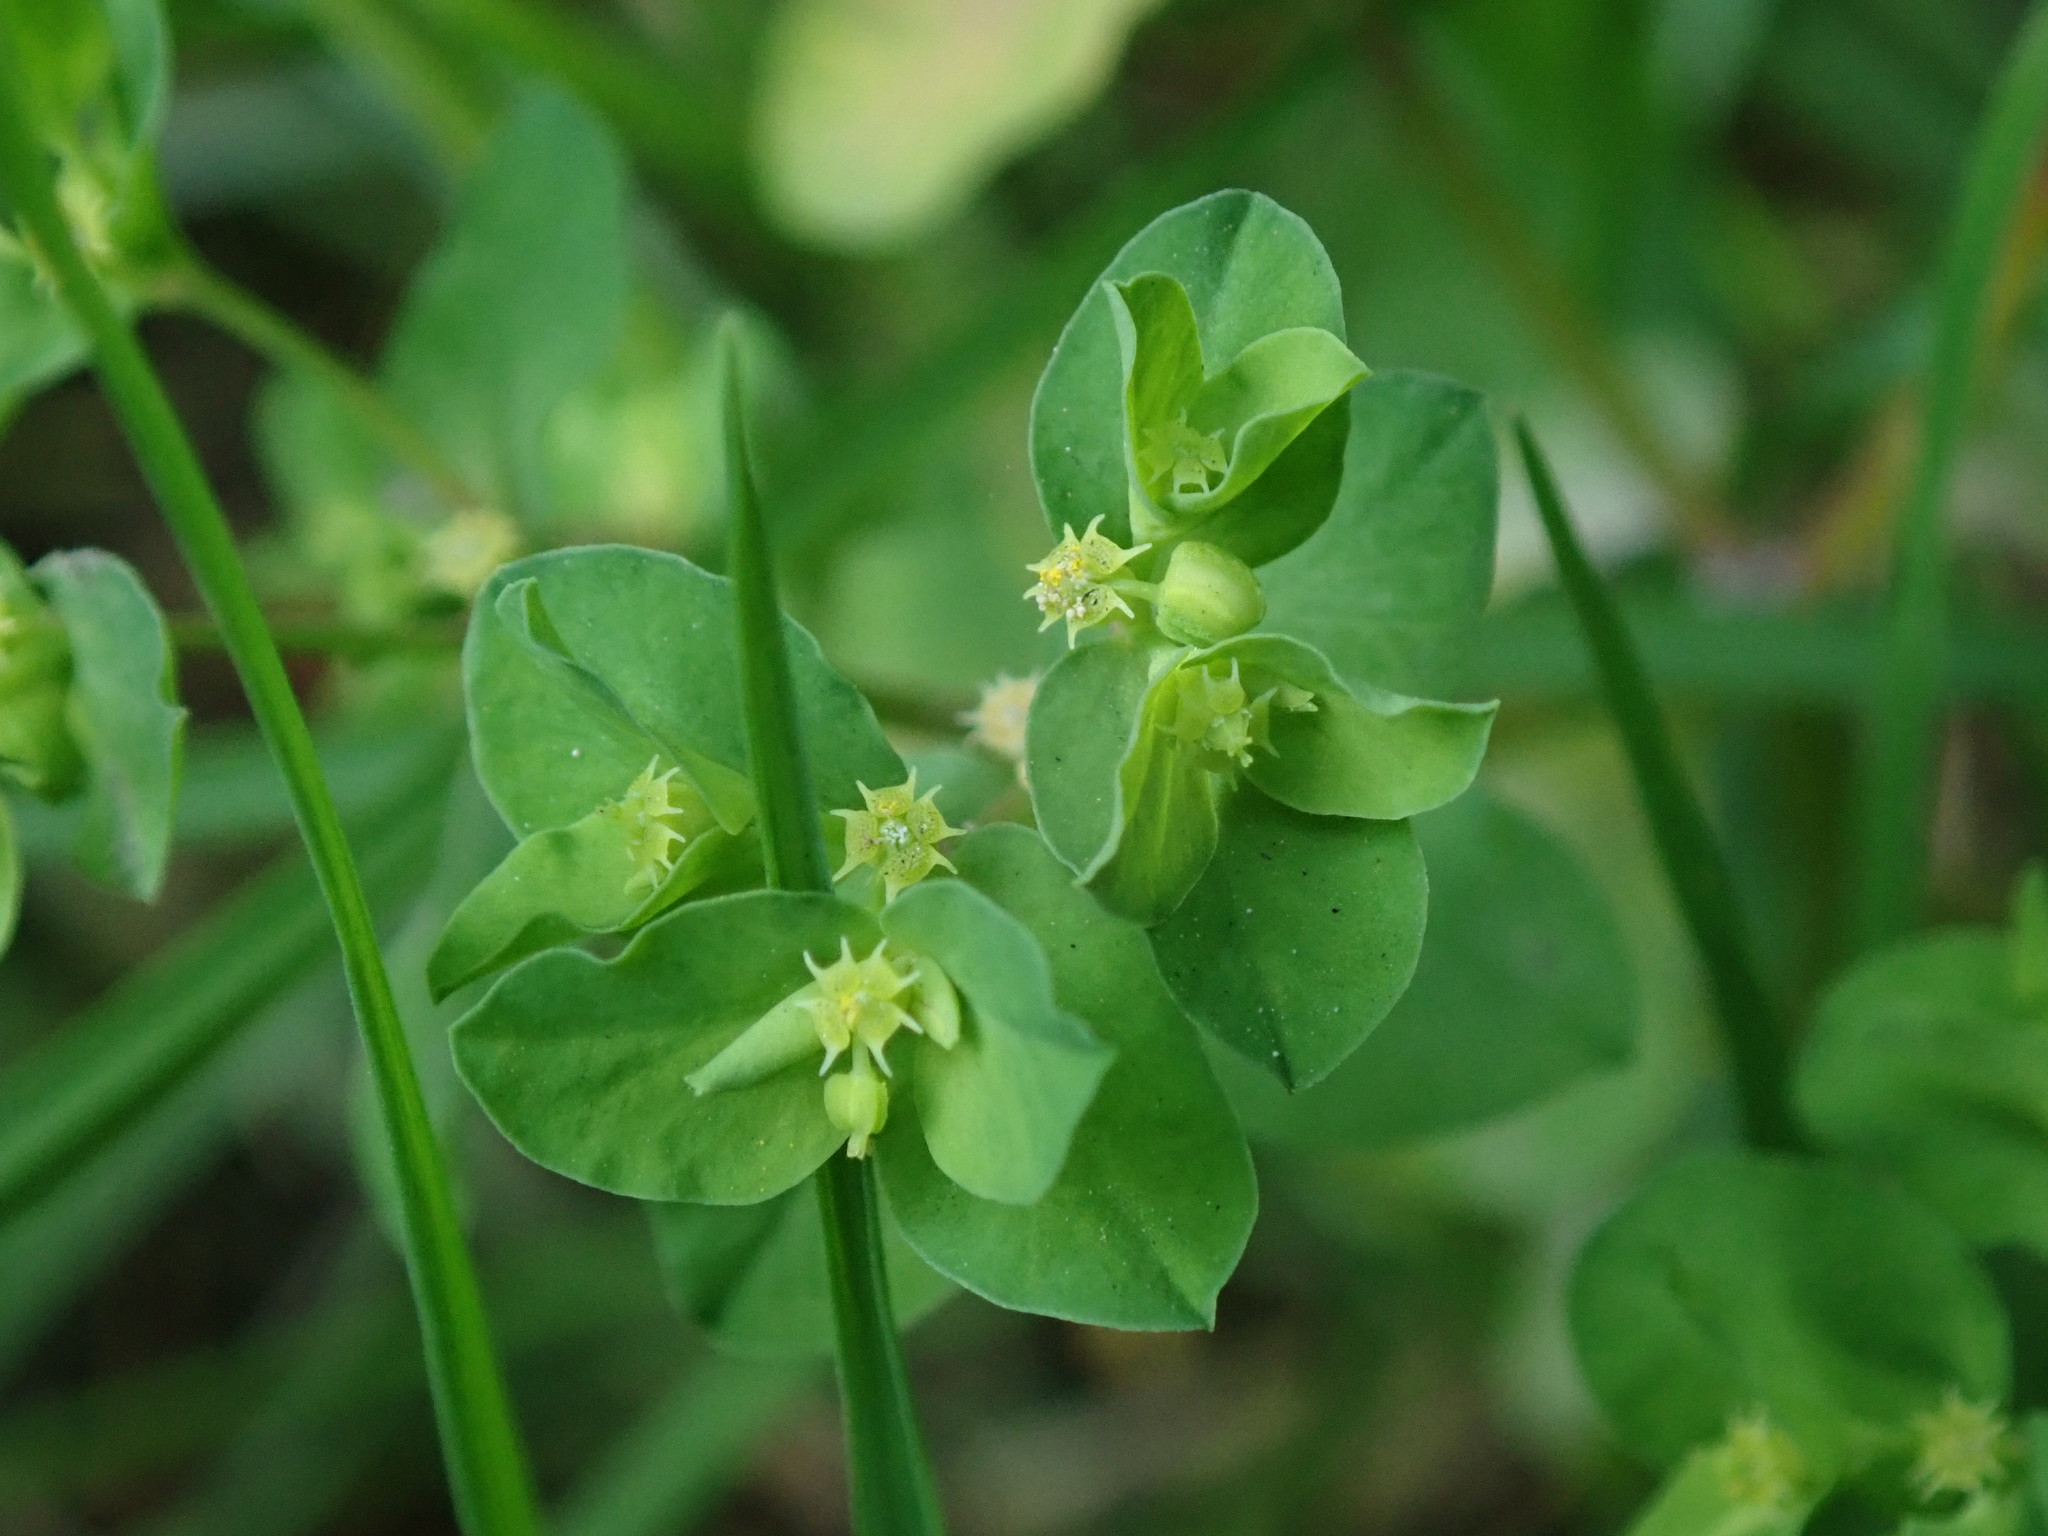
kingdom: Plantae
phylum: Tracheophyta
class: Magnoliopsida
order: Malpighiales
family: Euphorbiaceae
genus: Euphorbia
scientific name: Euphorbia peplus
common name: Petty spurge
